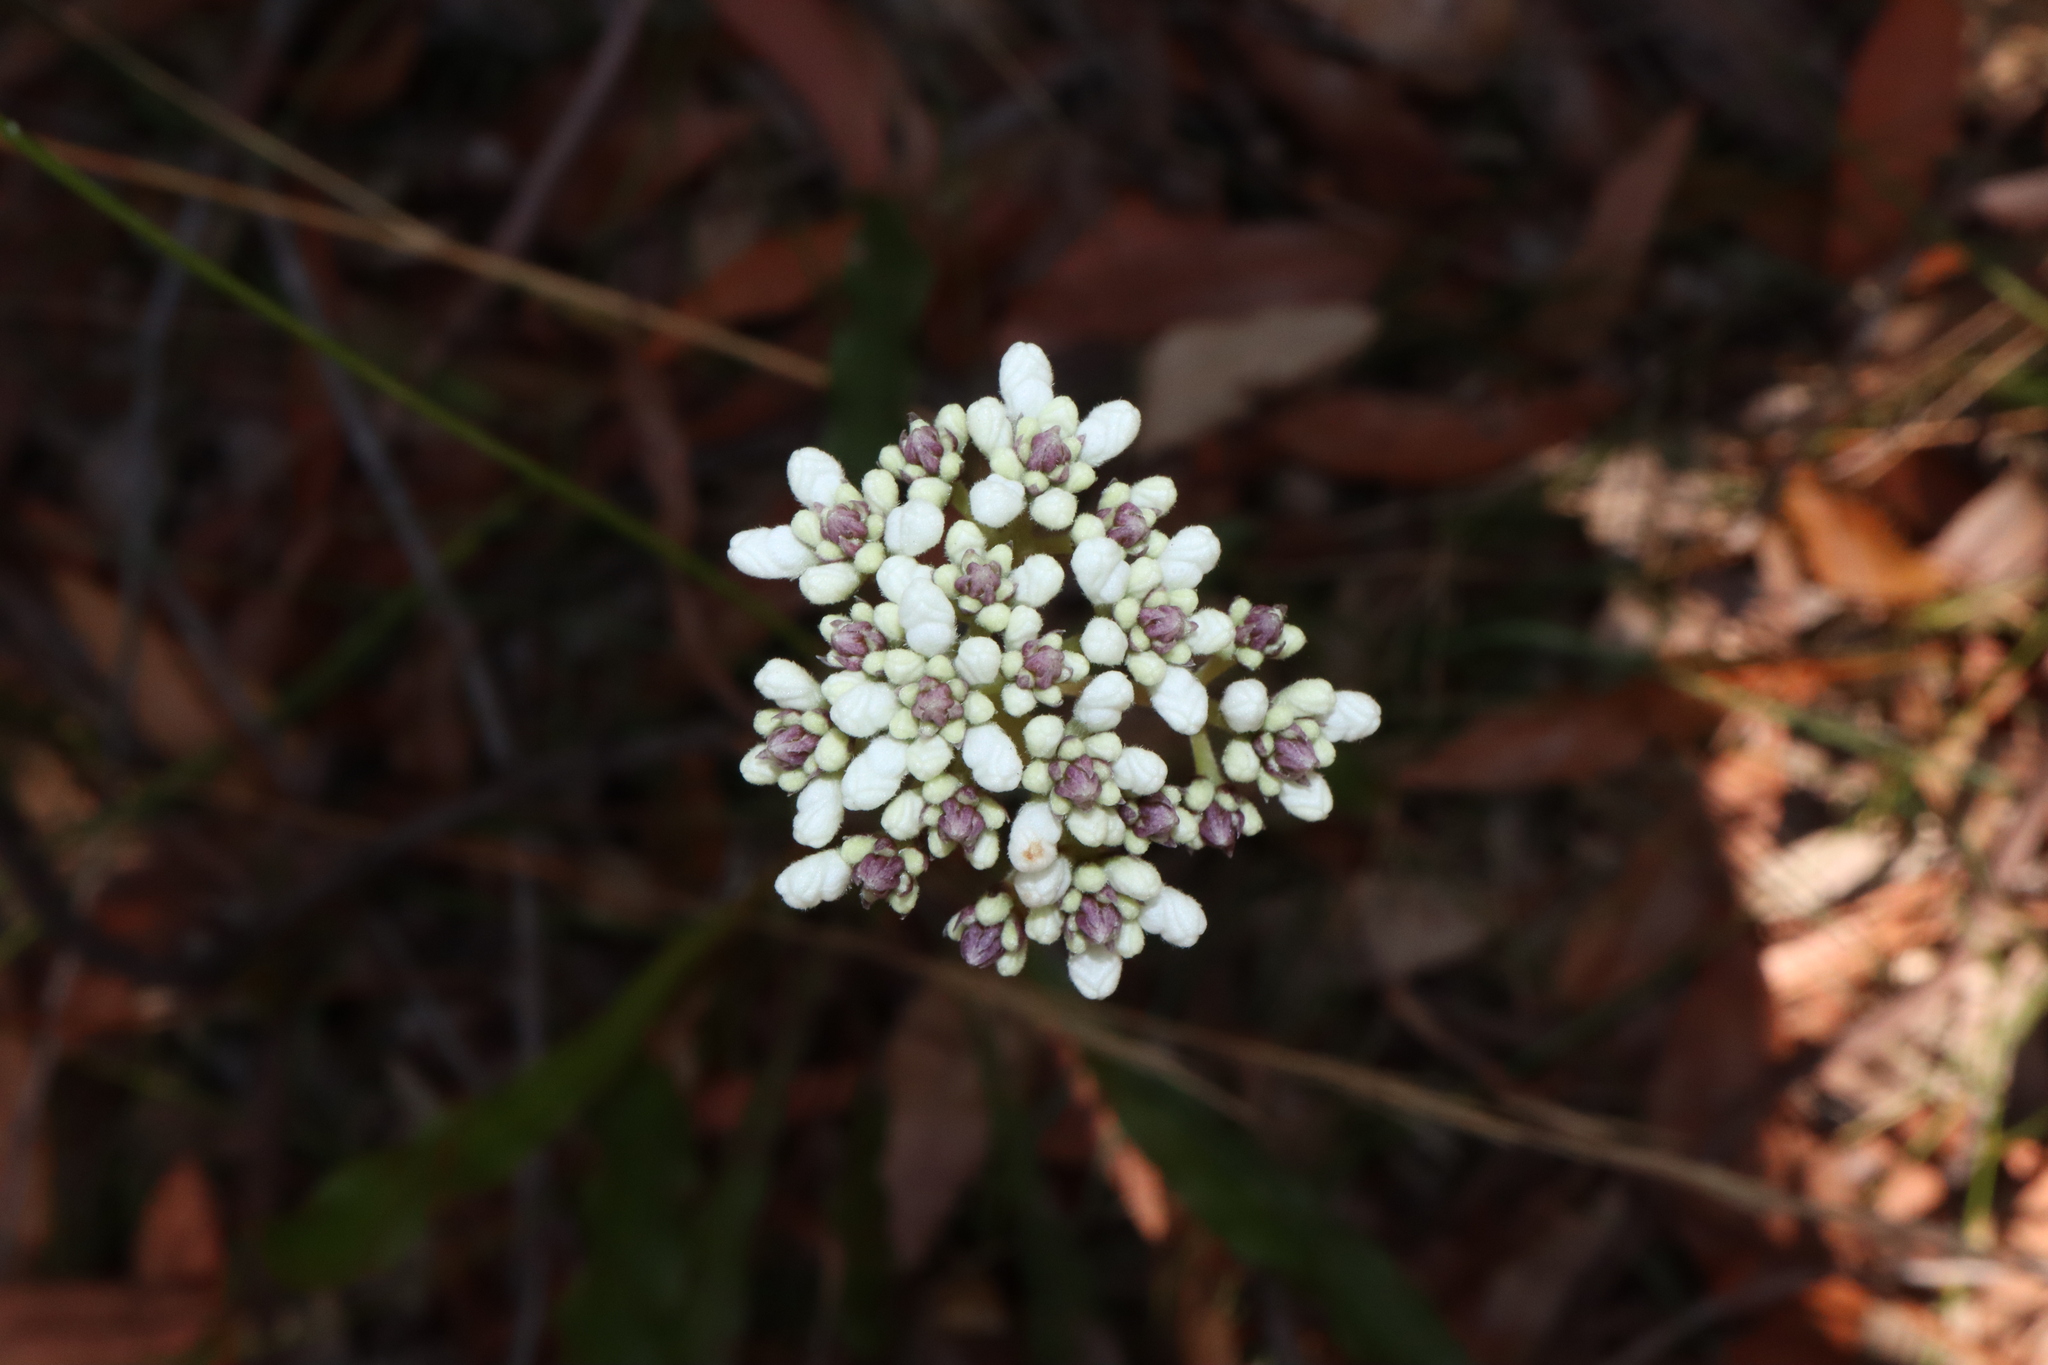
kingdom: Plantae
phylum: Tracheophyta
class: Magnoliopsida
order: Proteales
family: Proteaceae
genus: Conospermum
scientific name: Conospermum longifolium
